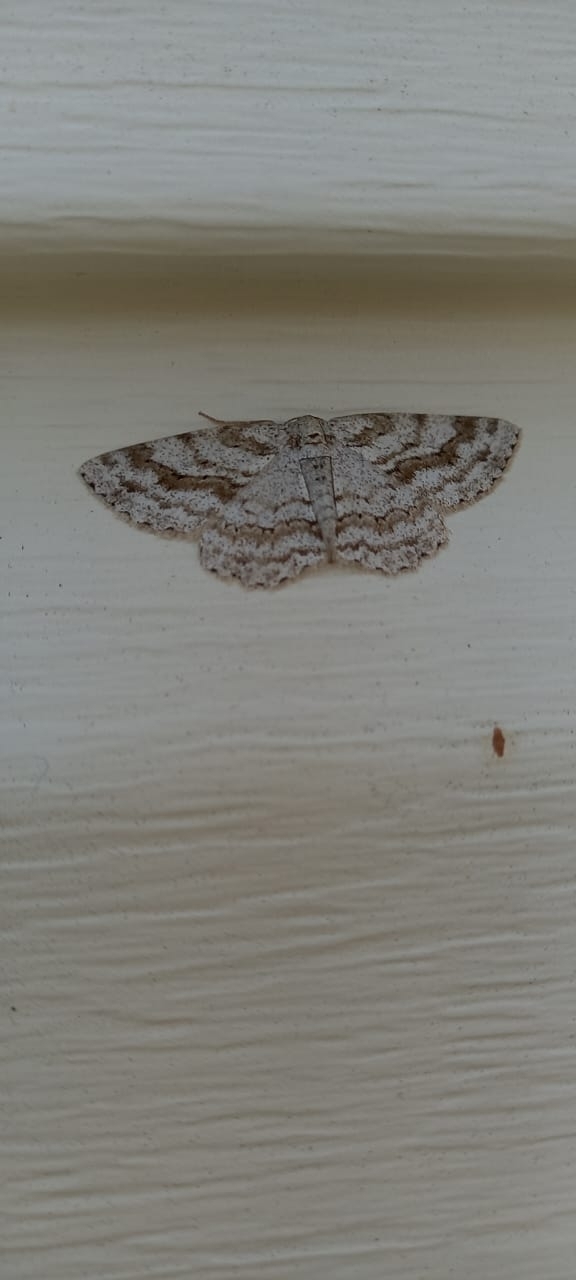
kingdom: Animalia
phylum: Arthropoda
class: Insecta
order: Lepidoptera
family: Geometridae
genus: Ectropis
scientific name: Ectropis crepuscularia
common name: Engrailed
